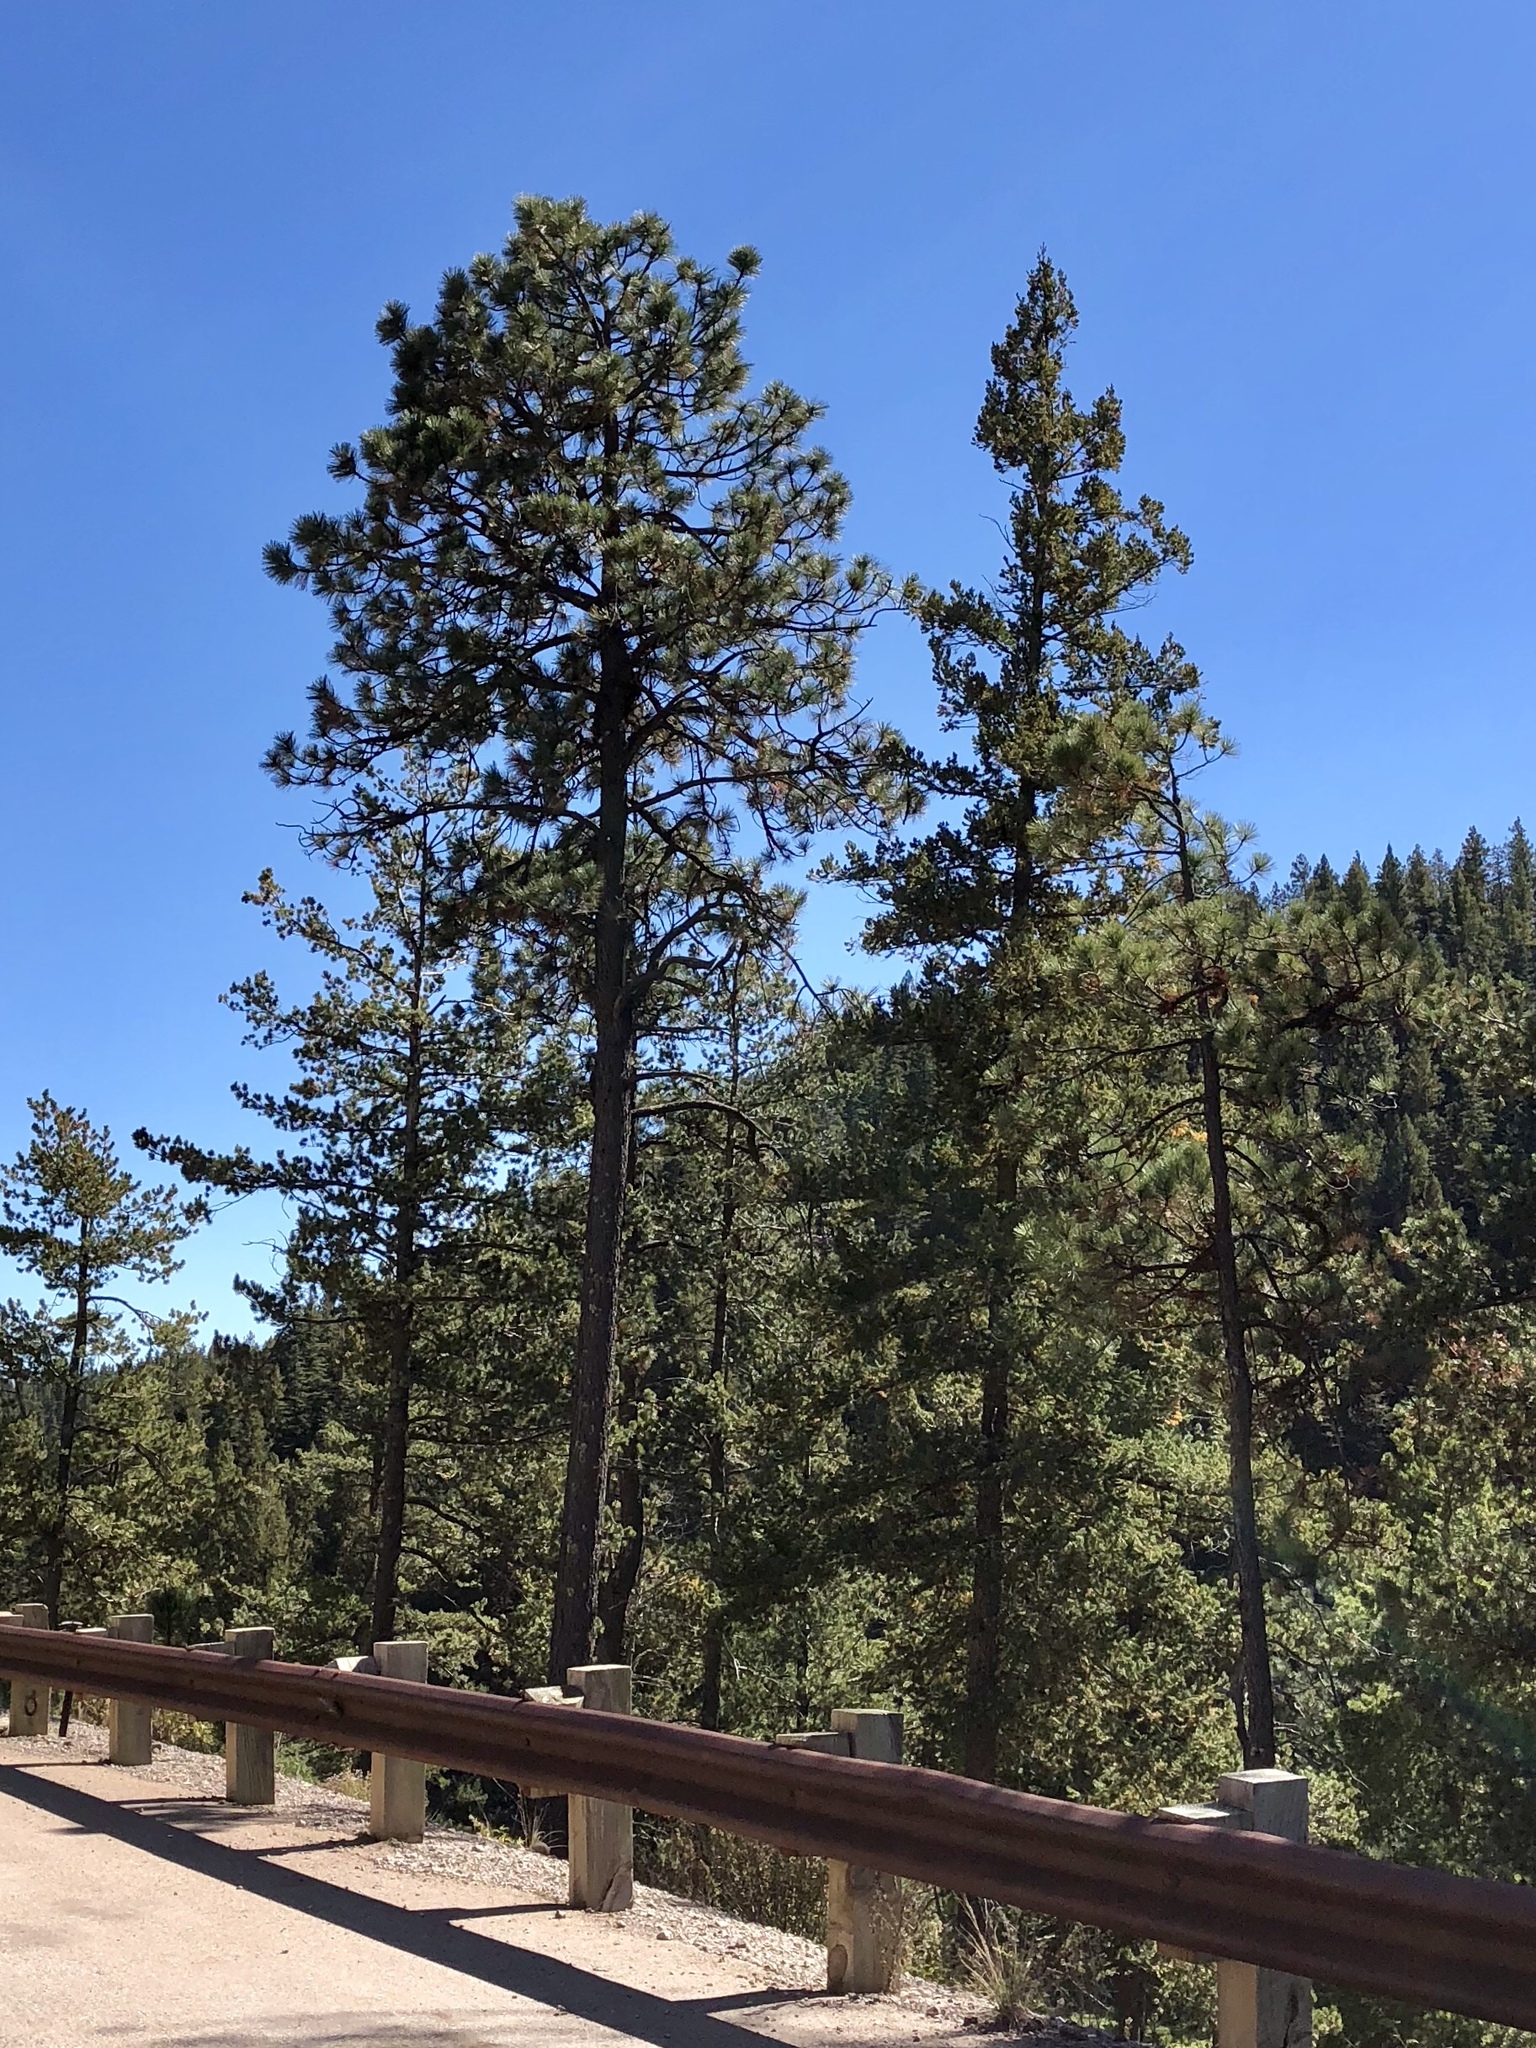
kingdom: Plantae
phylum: Tracheophyta
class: Pinopsida
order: Pinales
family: Pinaceae
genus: Pinus
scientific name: Pinus ponderosa
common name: Western yellow-pine
